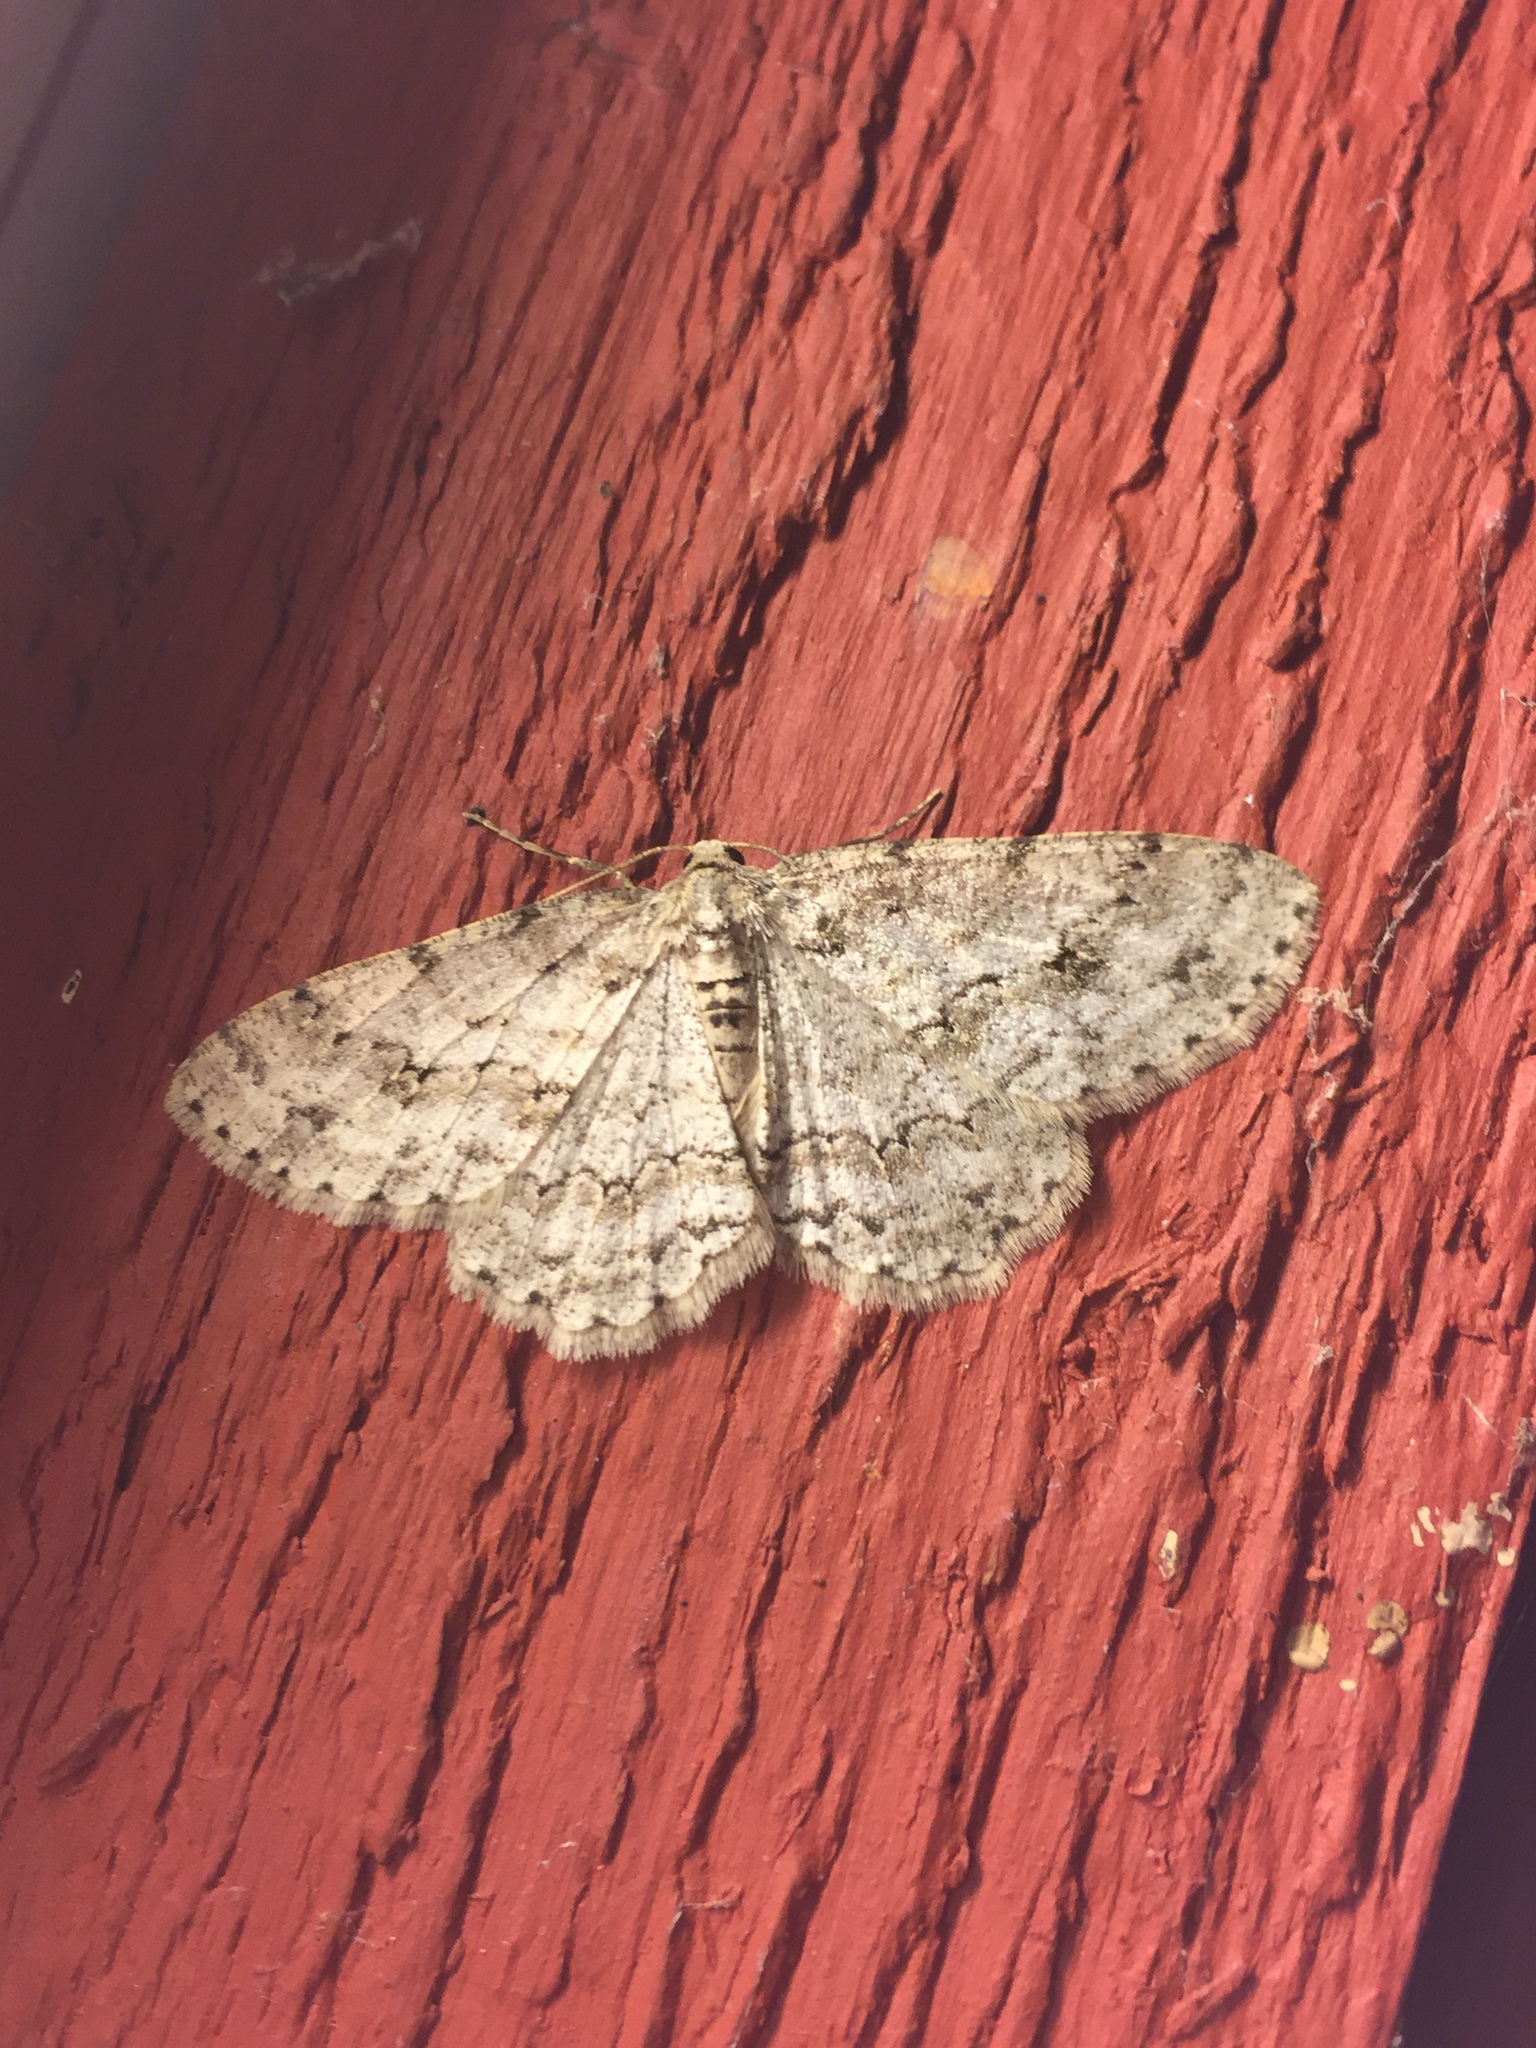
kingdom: Animalia
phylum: Arthropoda
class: Insecta
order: Lepidoptera
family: Geometridae
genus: Ectropis
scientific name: Ectropis crepuscularia
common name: Engrailed
